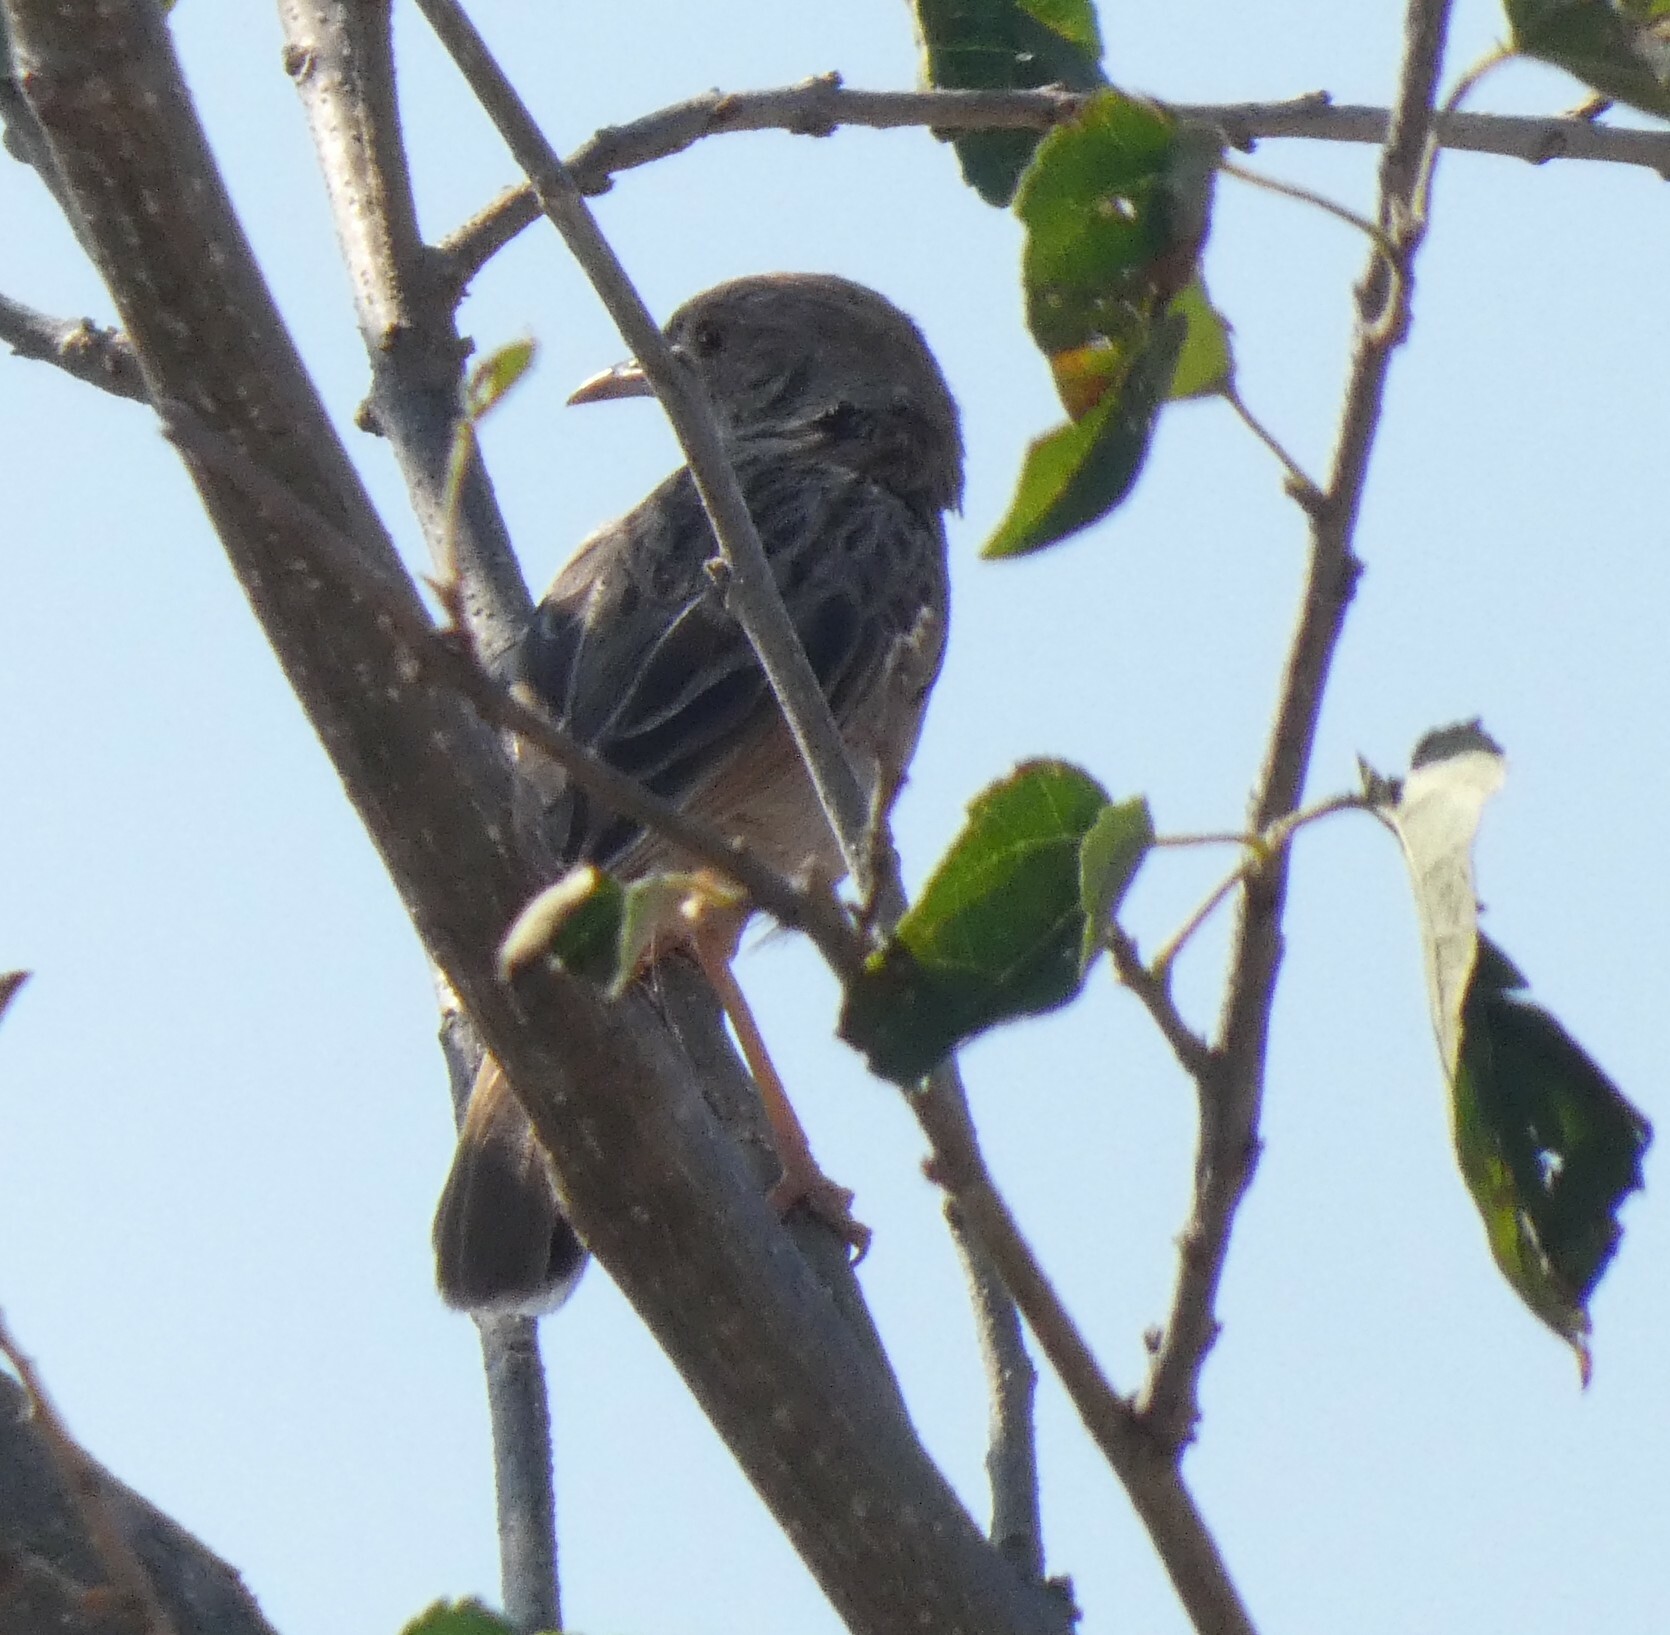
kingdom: Animalia
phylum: Chordata
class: Aves
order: Passeriformes
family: Cisticolidae
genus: Cisticola
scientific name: Cisticola chiniana
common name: Rattling cisticola
